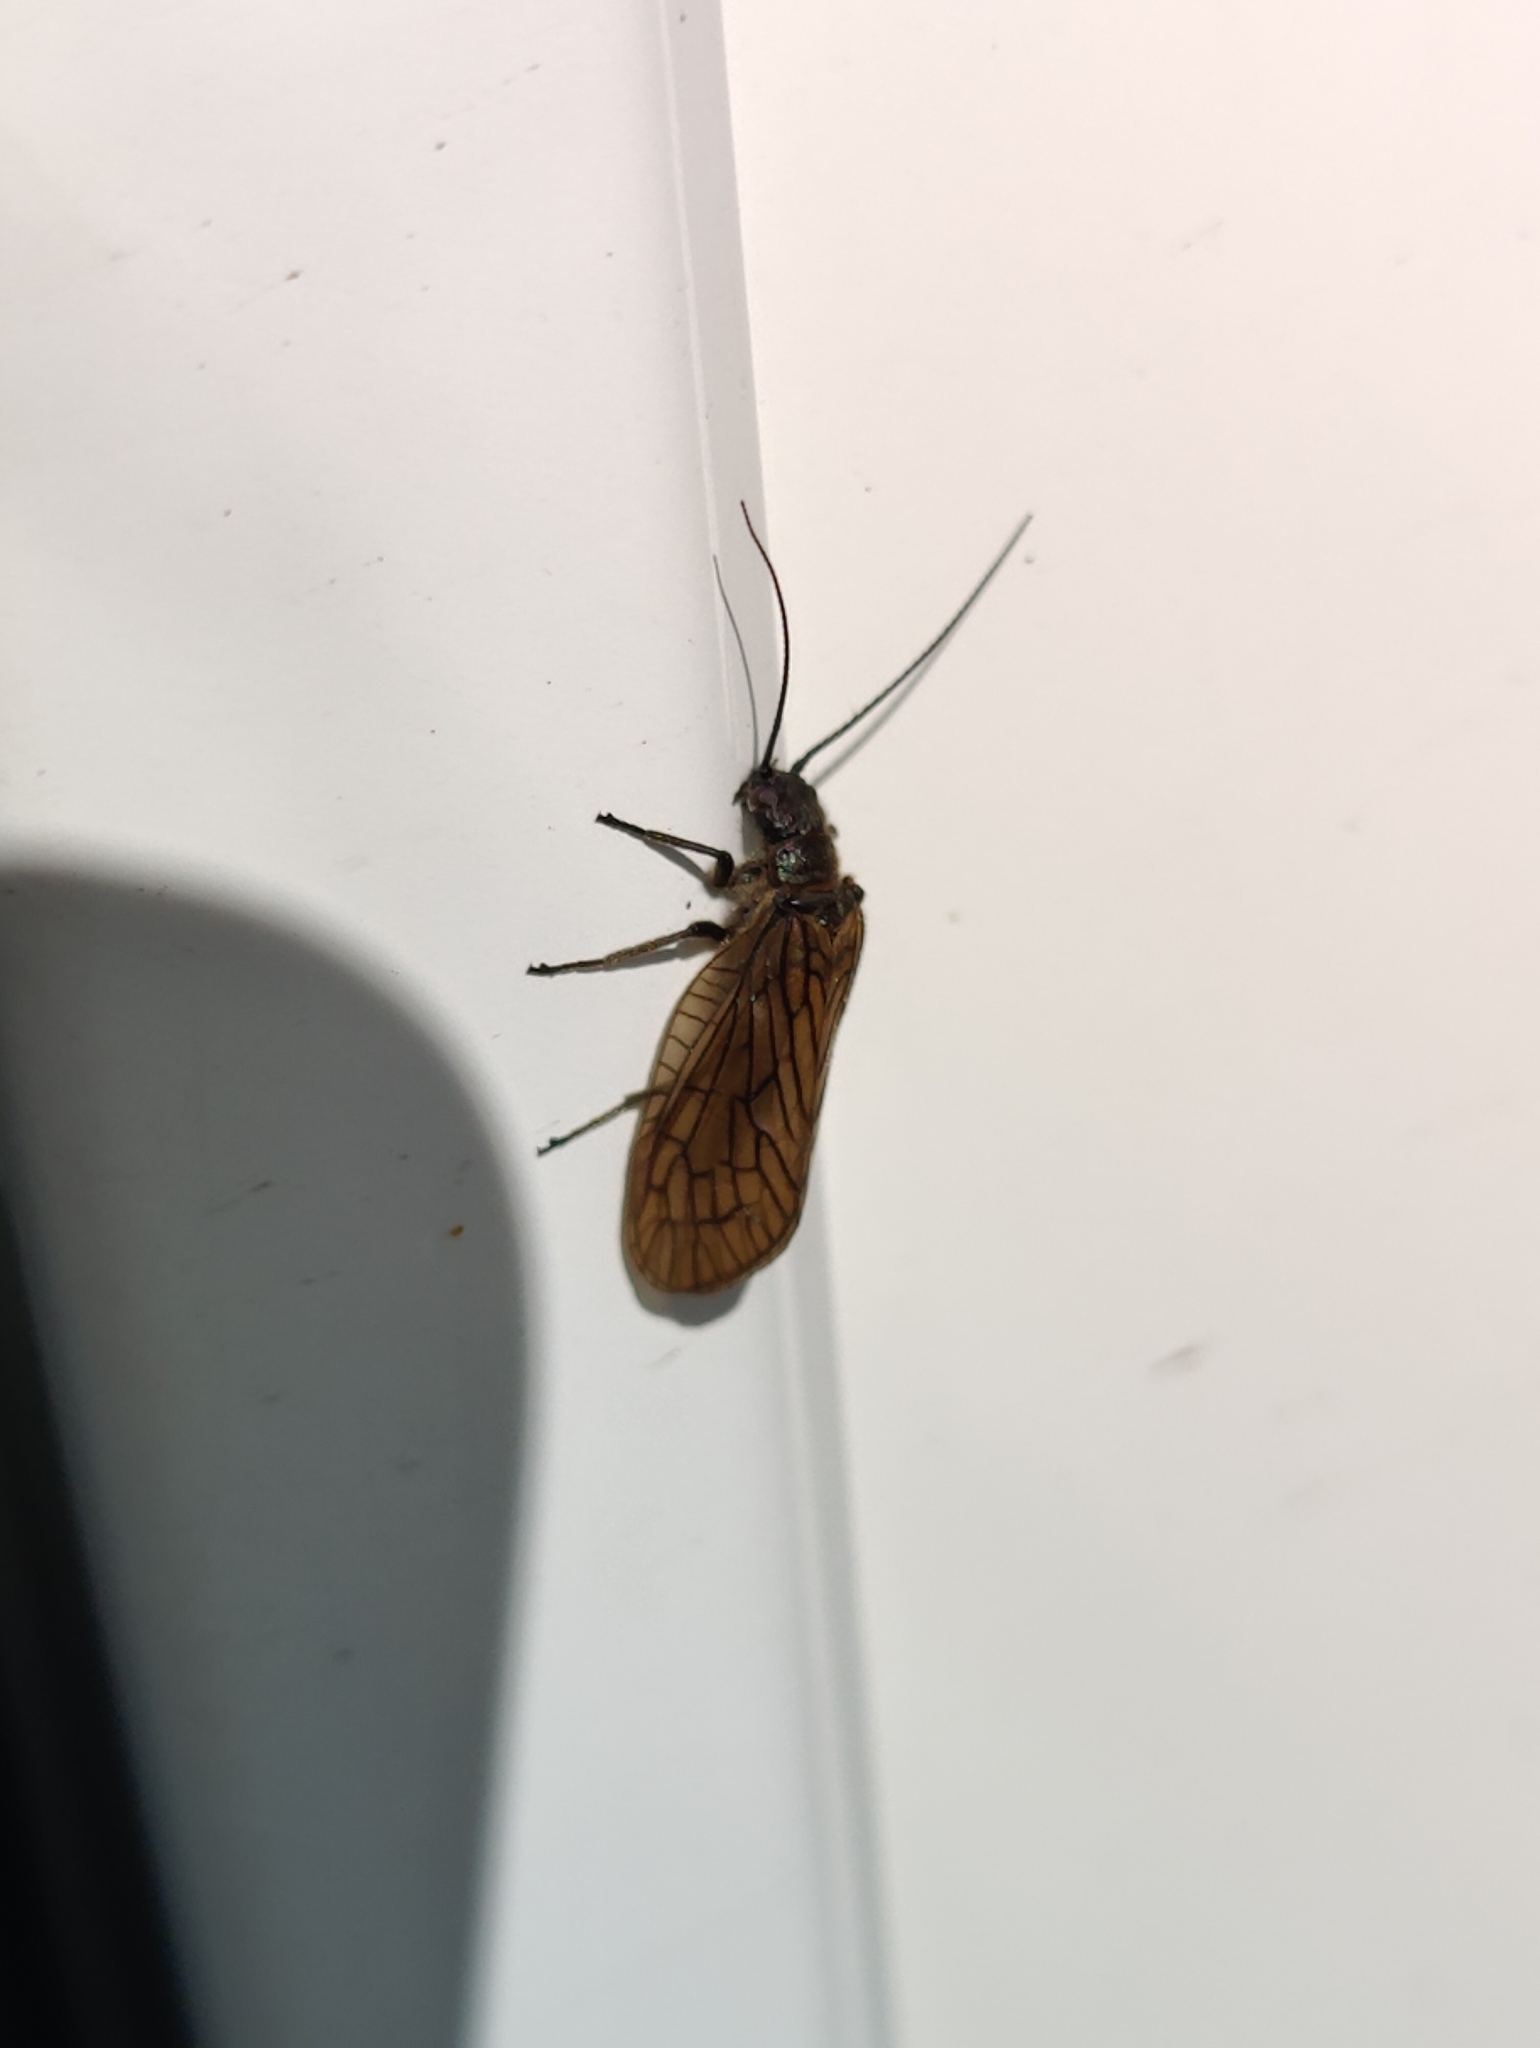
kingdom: Animalia
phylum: Arthropoda
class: Insecta
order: Megaloptera
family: Sialidae
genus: Sialis
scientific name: Sialis
